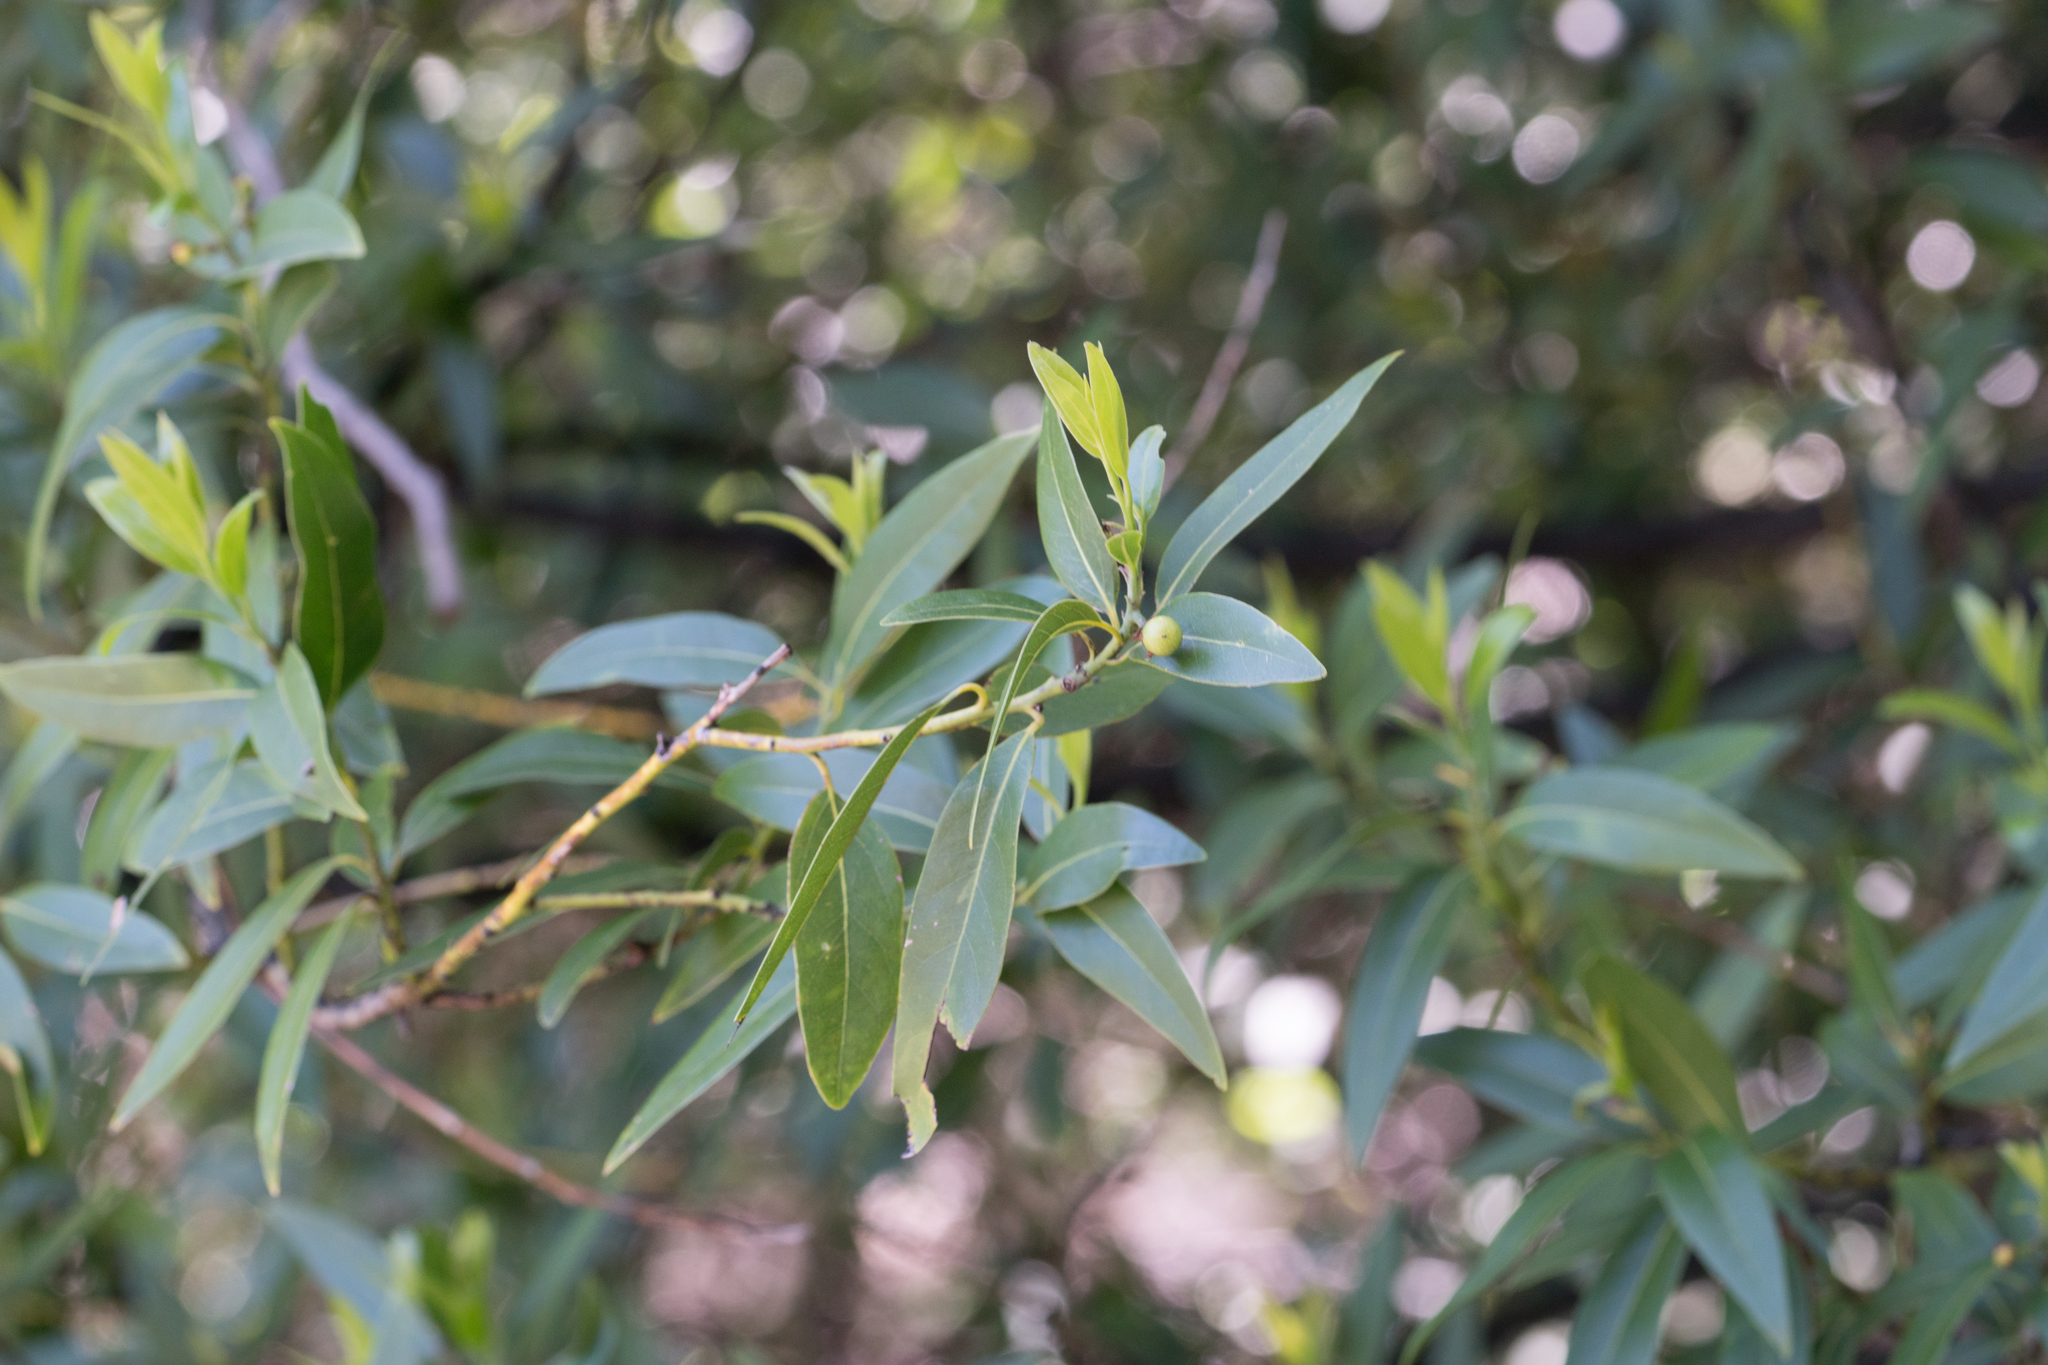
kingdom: Plantae
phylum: Tracheophyta
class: Magnoliopsida
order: Laurales
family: Lauraceae
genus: Umbellularia
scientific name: Umbellularia californica
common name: California bay
